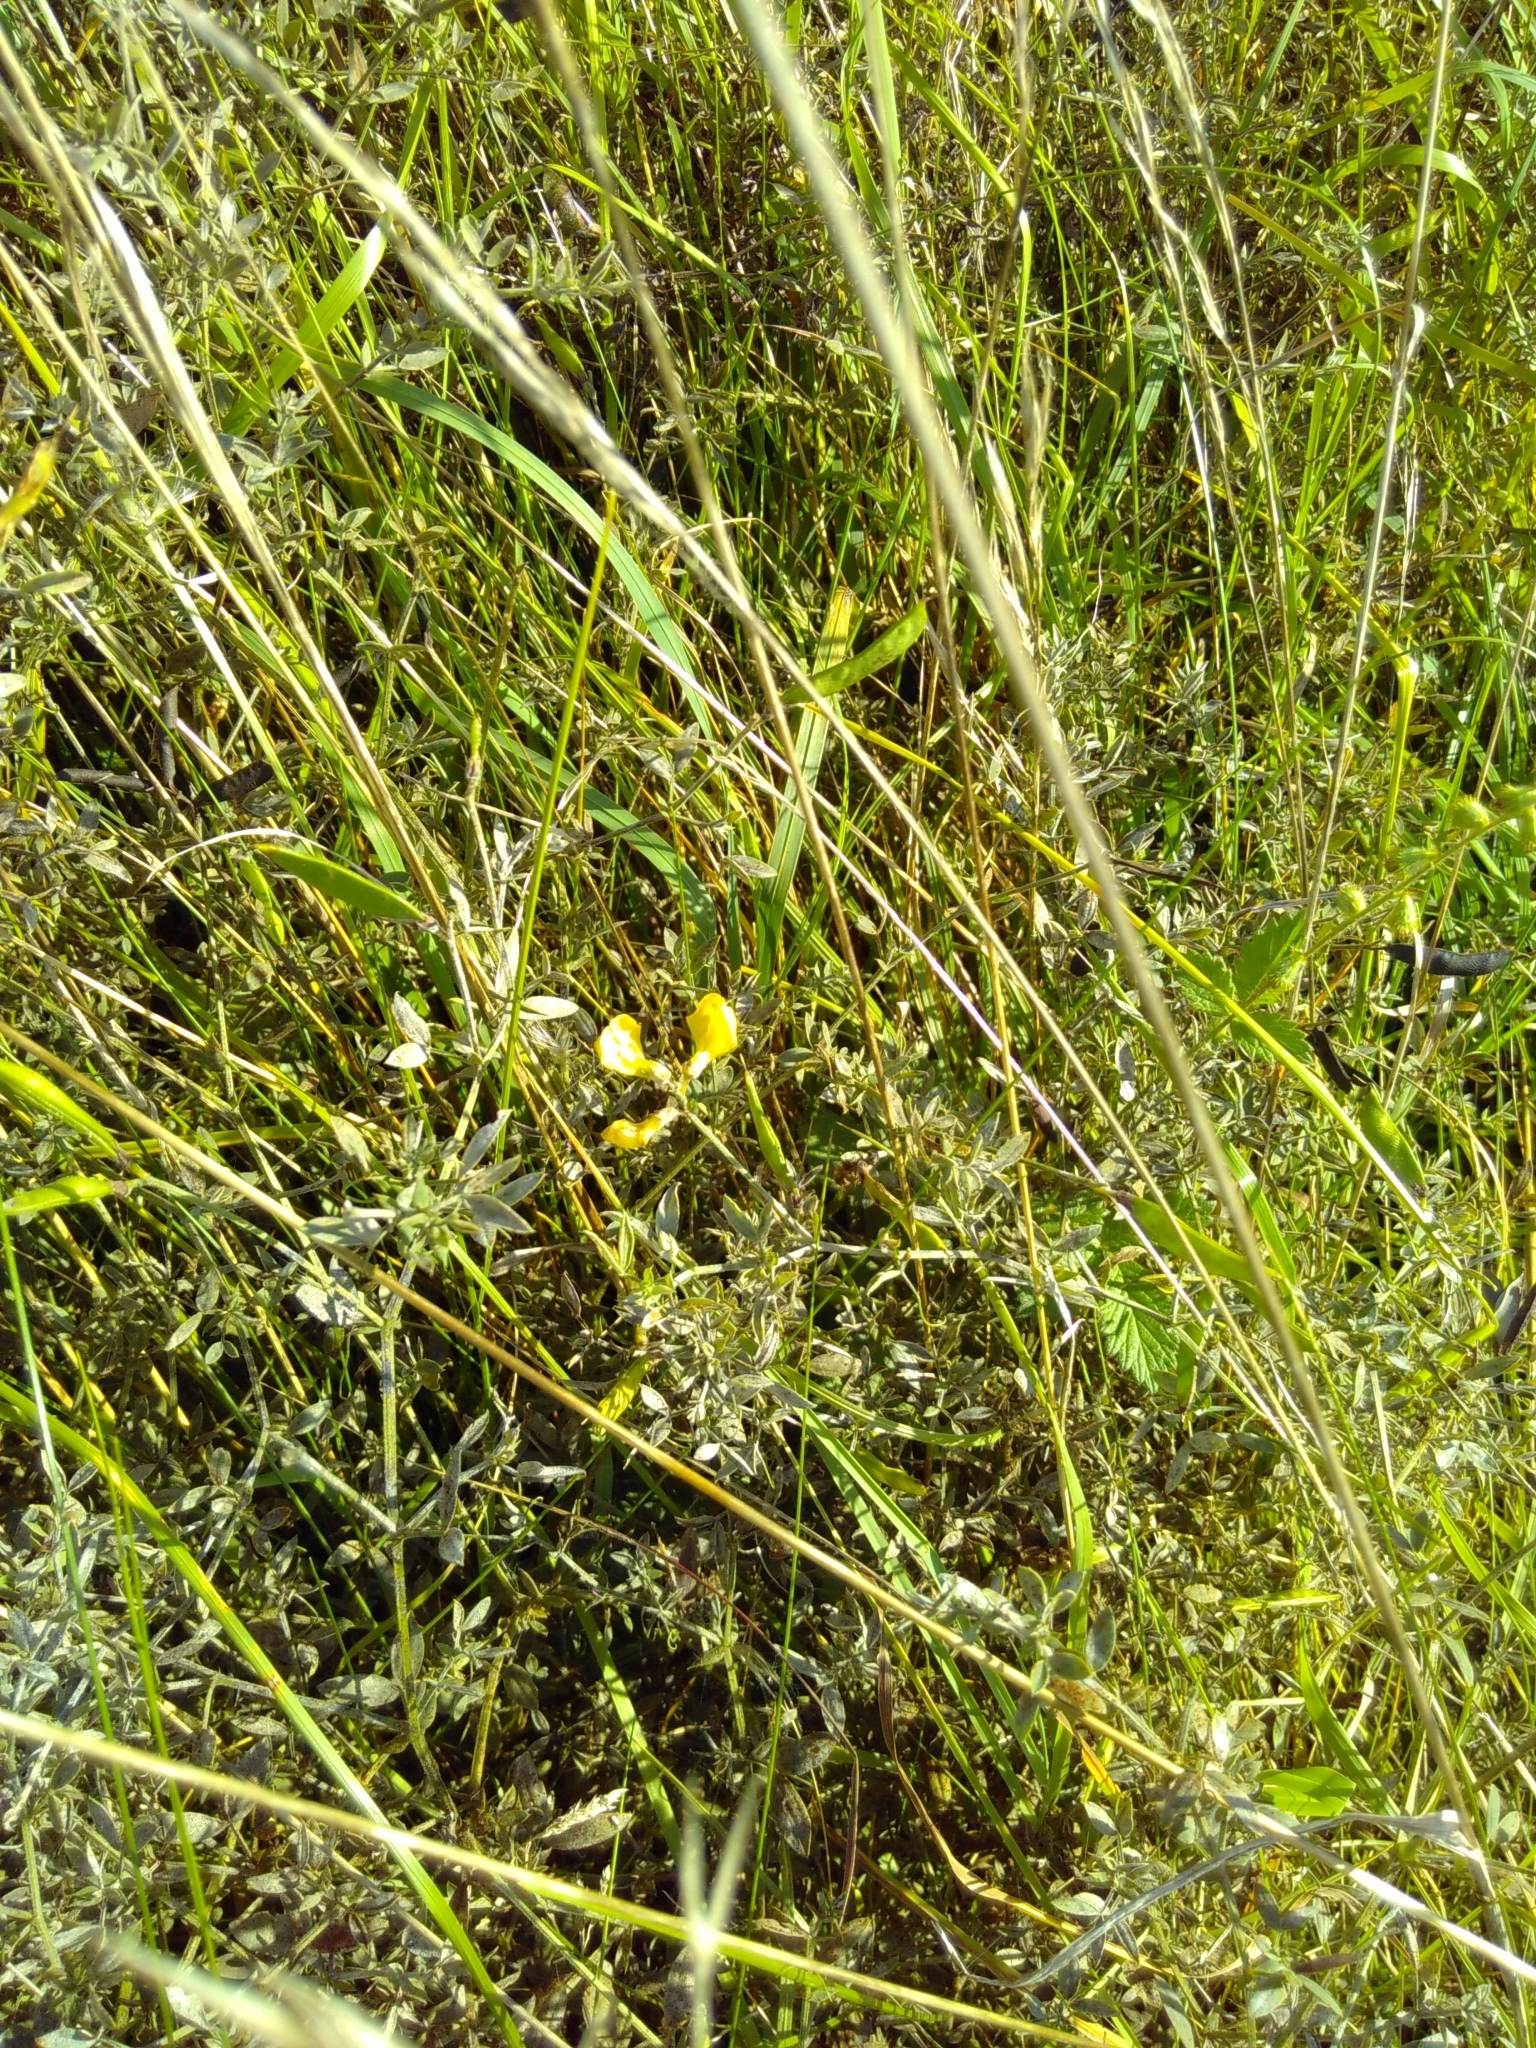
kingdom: Plantae
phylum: Tracheophyta
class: Magnoliopsida
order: Fabales
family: Fabaceae
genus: Lathyrus
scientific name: Lathyrus pratensis
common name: Meadow vetchling
